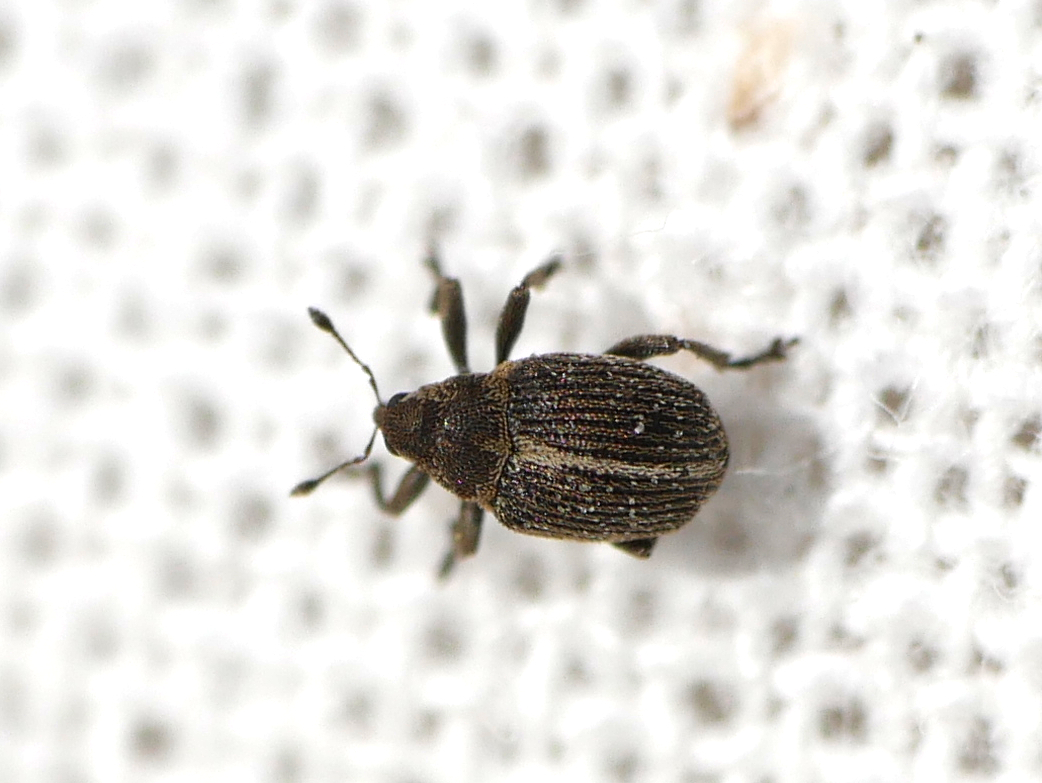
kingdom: Animalia
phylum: Arthropoda
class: Insecta
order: Coleoptera
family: Curculionidae
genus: Ceutorhynchus
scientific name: Ceutorhynchus typhae
